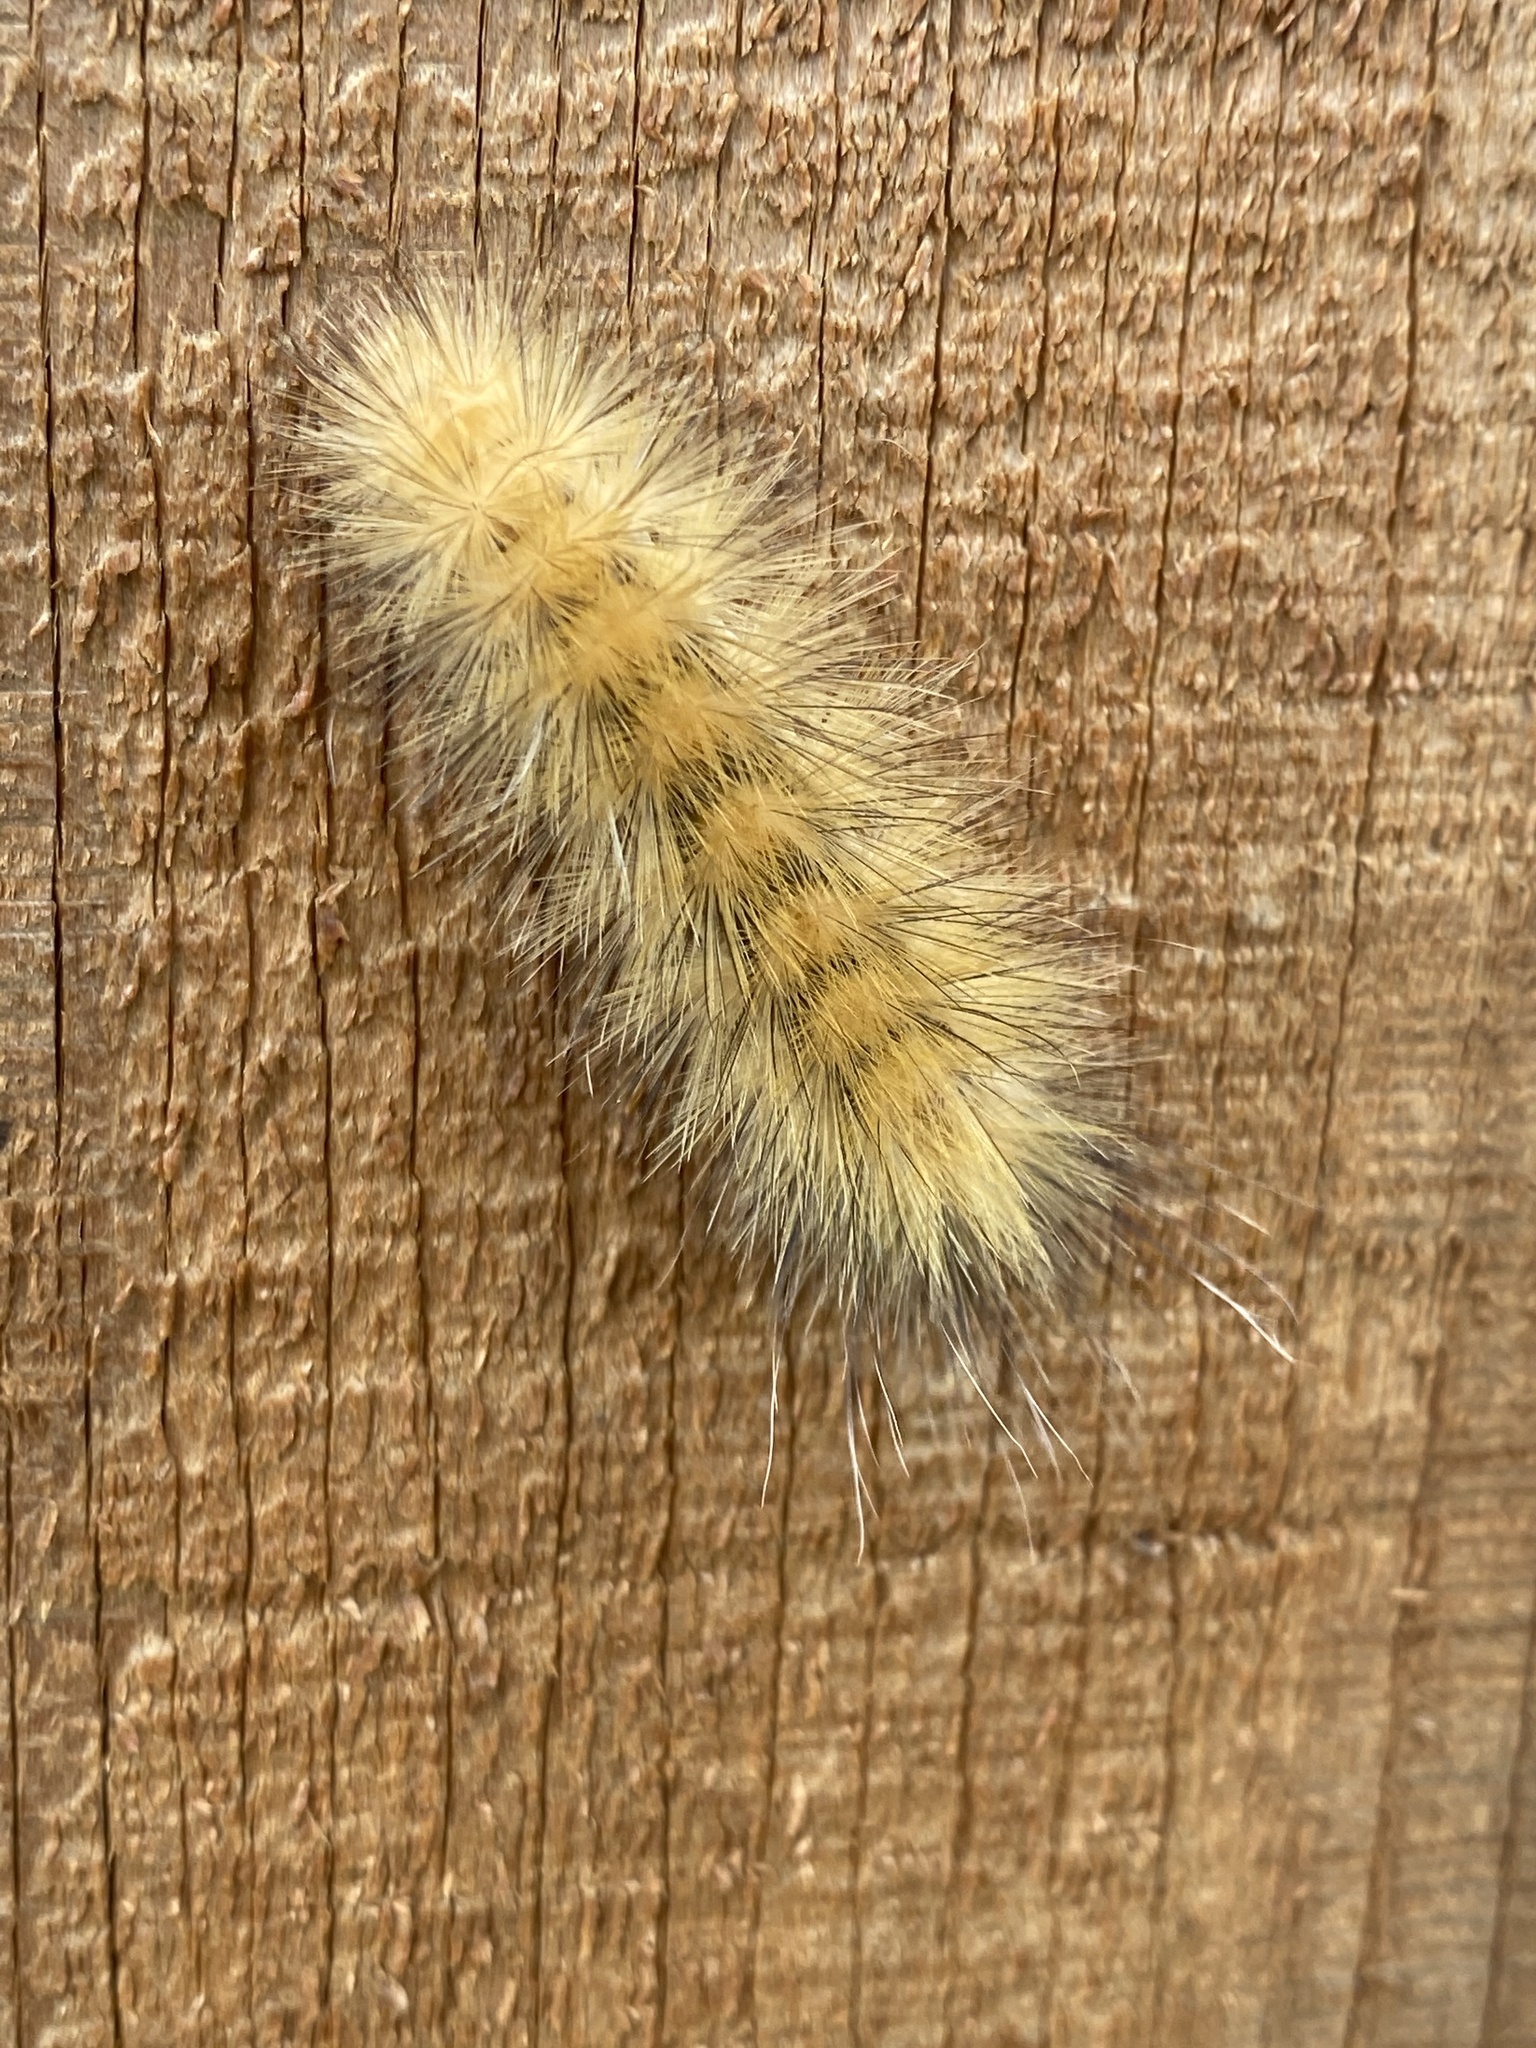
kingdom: Animalia
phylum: Arthropoda
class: Insecta
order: Lepidoptera
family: Erebidae
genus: Spilosoma
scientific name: Spilosoma virginica
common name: Virginia tiger moth
